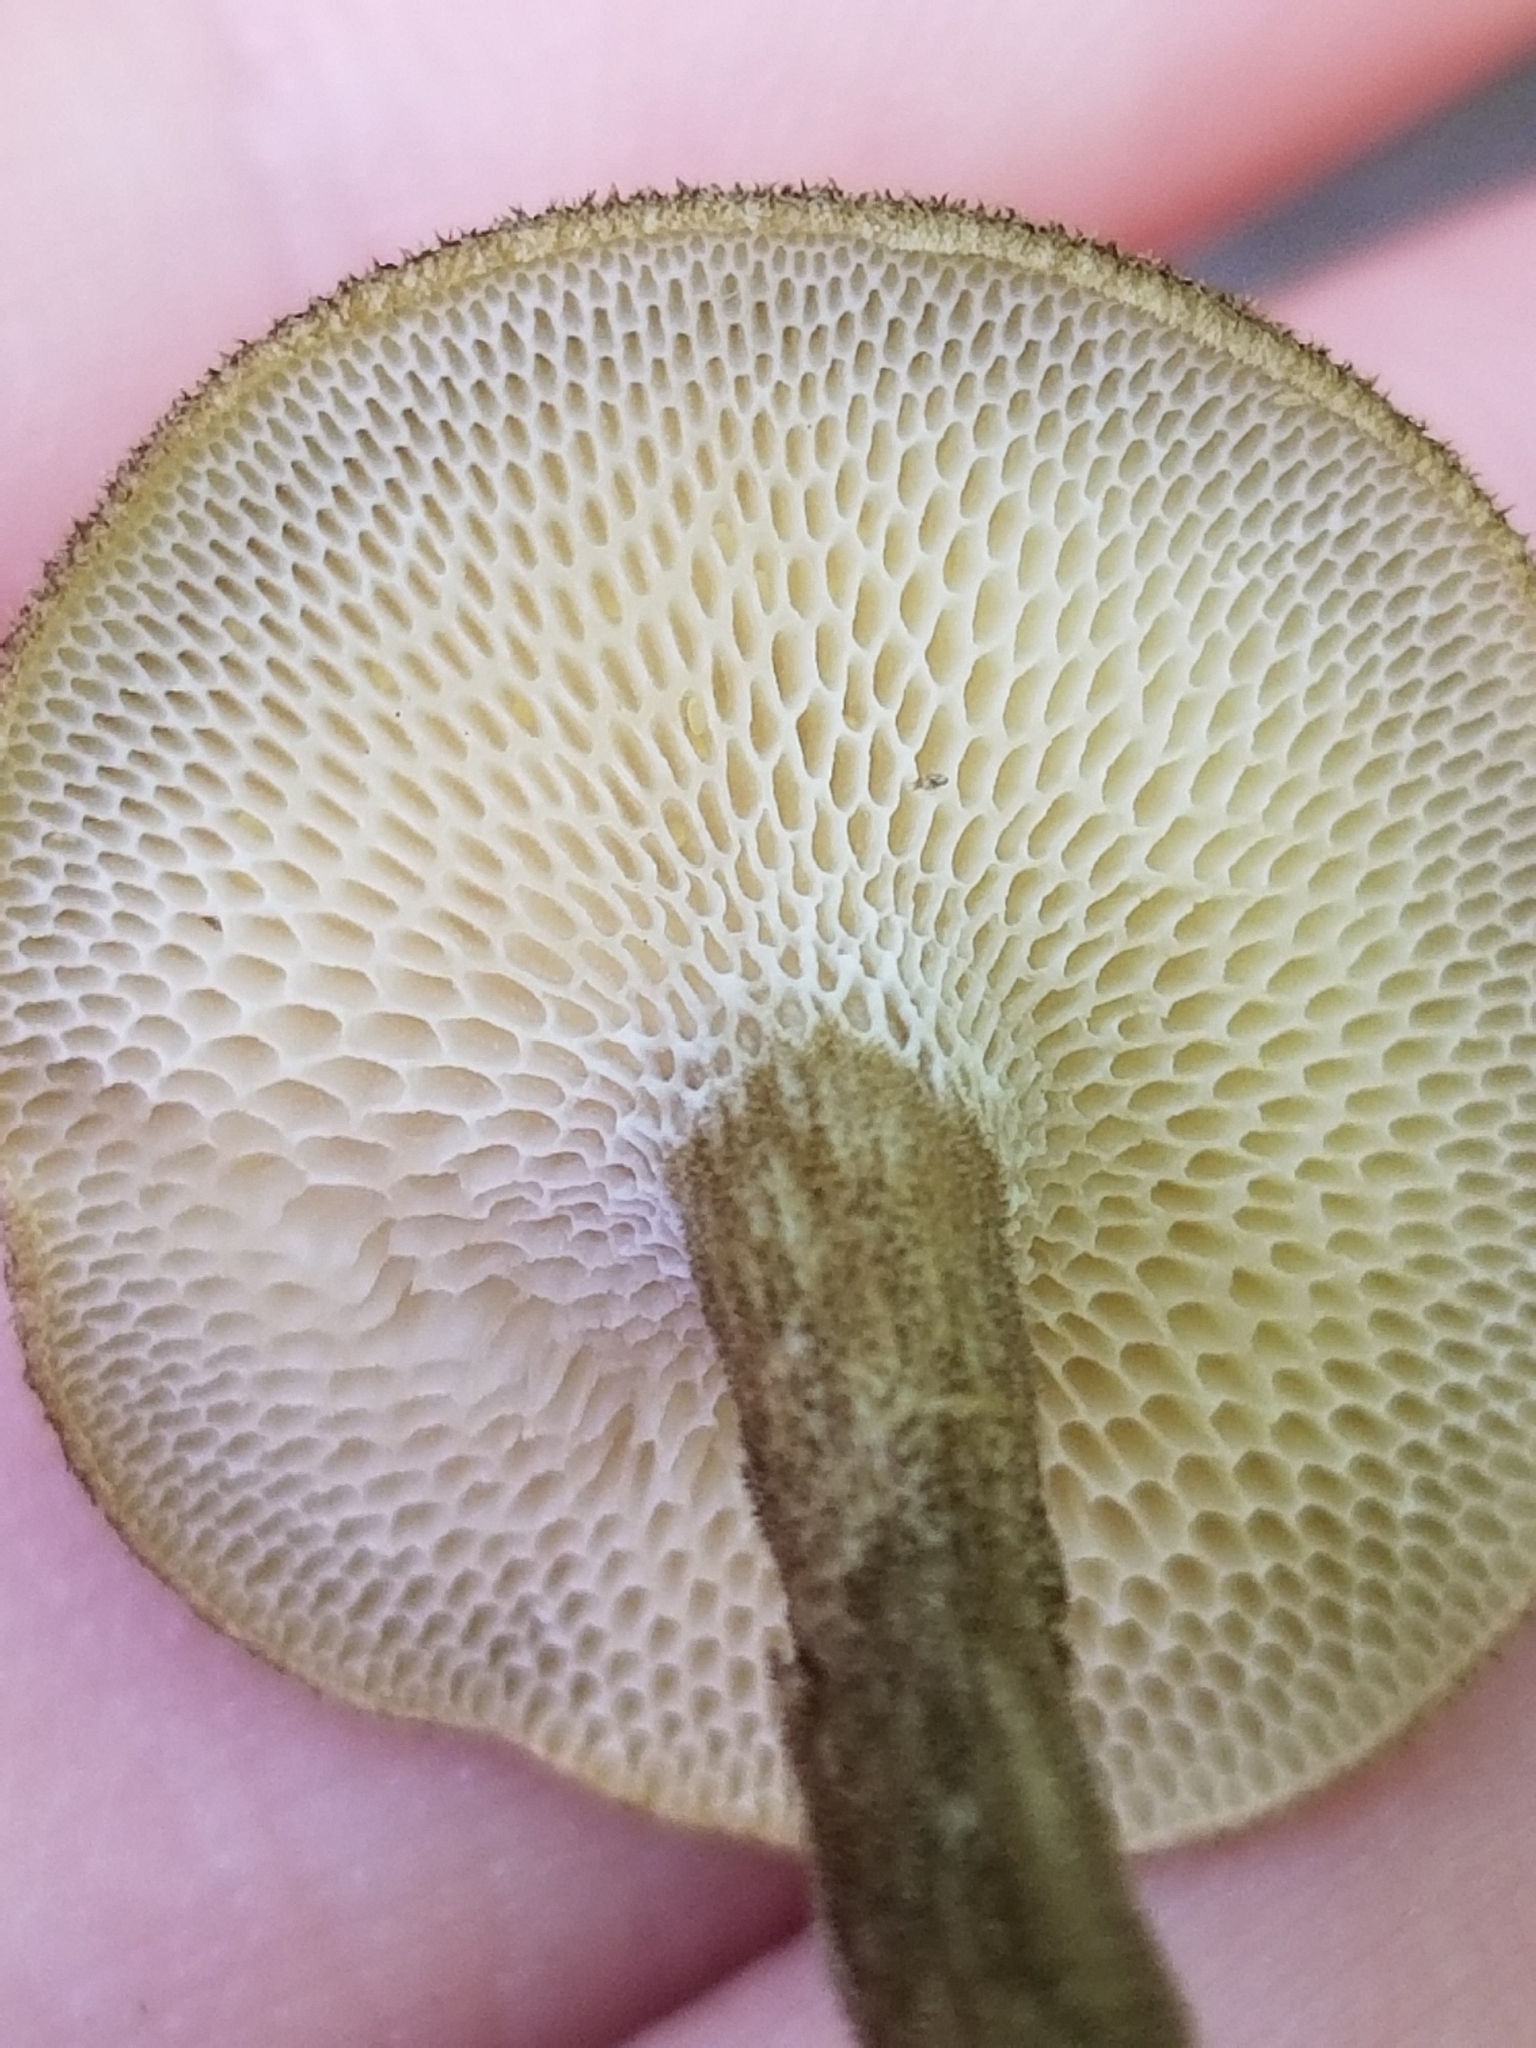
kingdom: Fungi
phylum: Basidiomycota
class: Agaricomycetes
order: Polyporales
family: Polyporaceae
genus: Lentinus
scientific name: Lentinus arcularius
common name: Spring polypore
